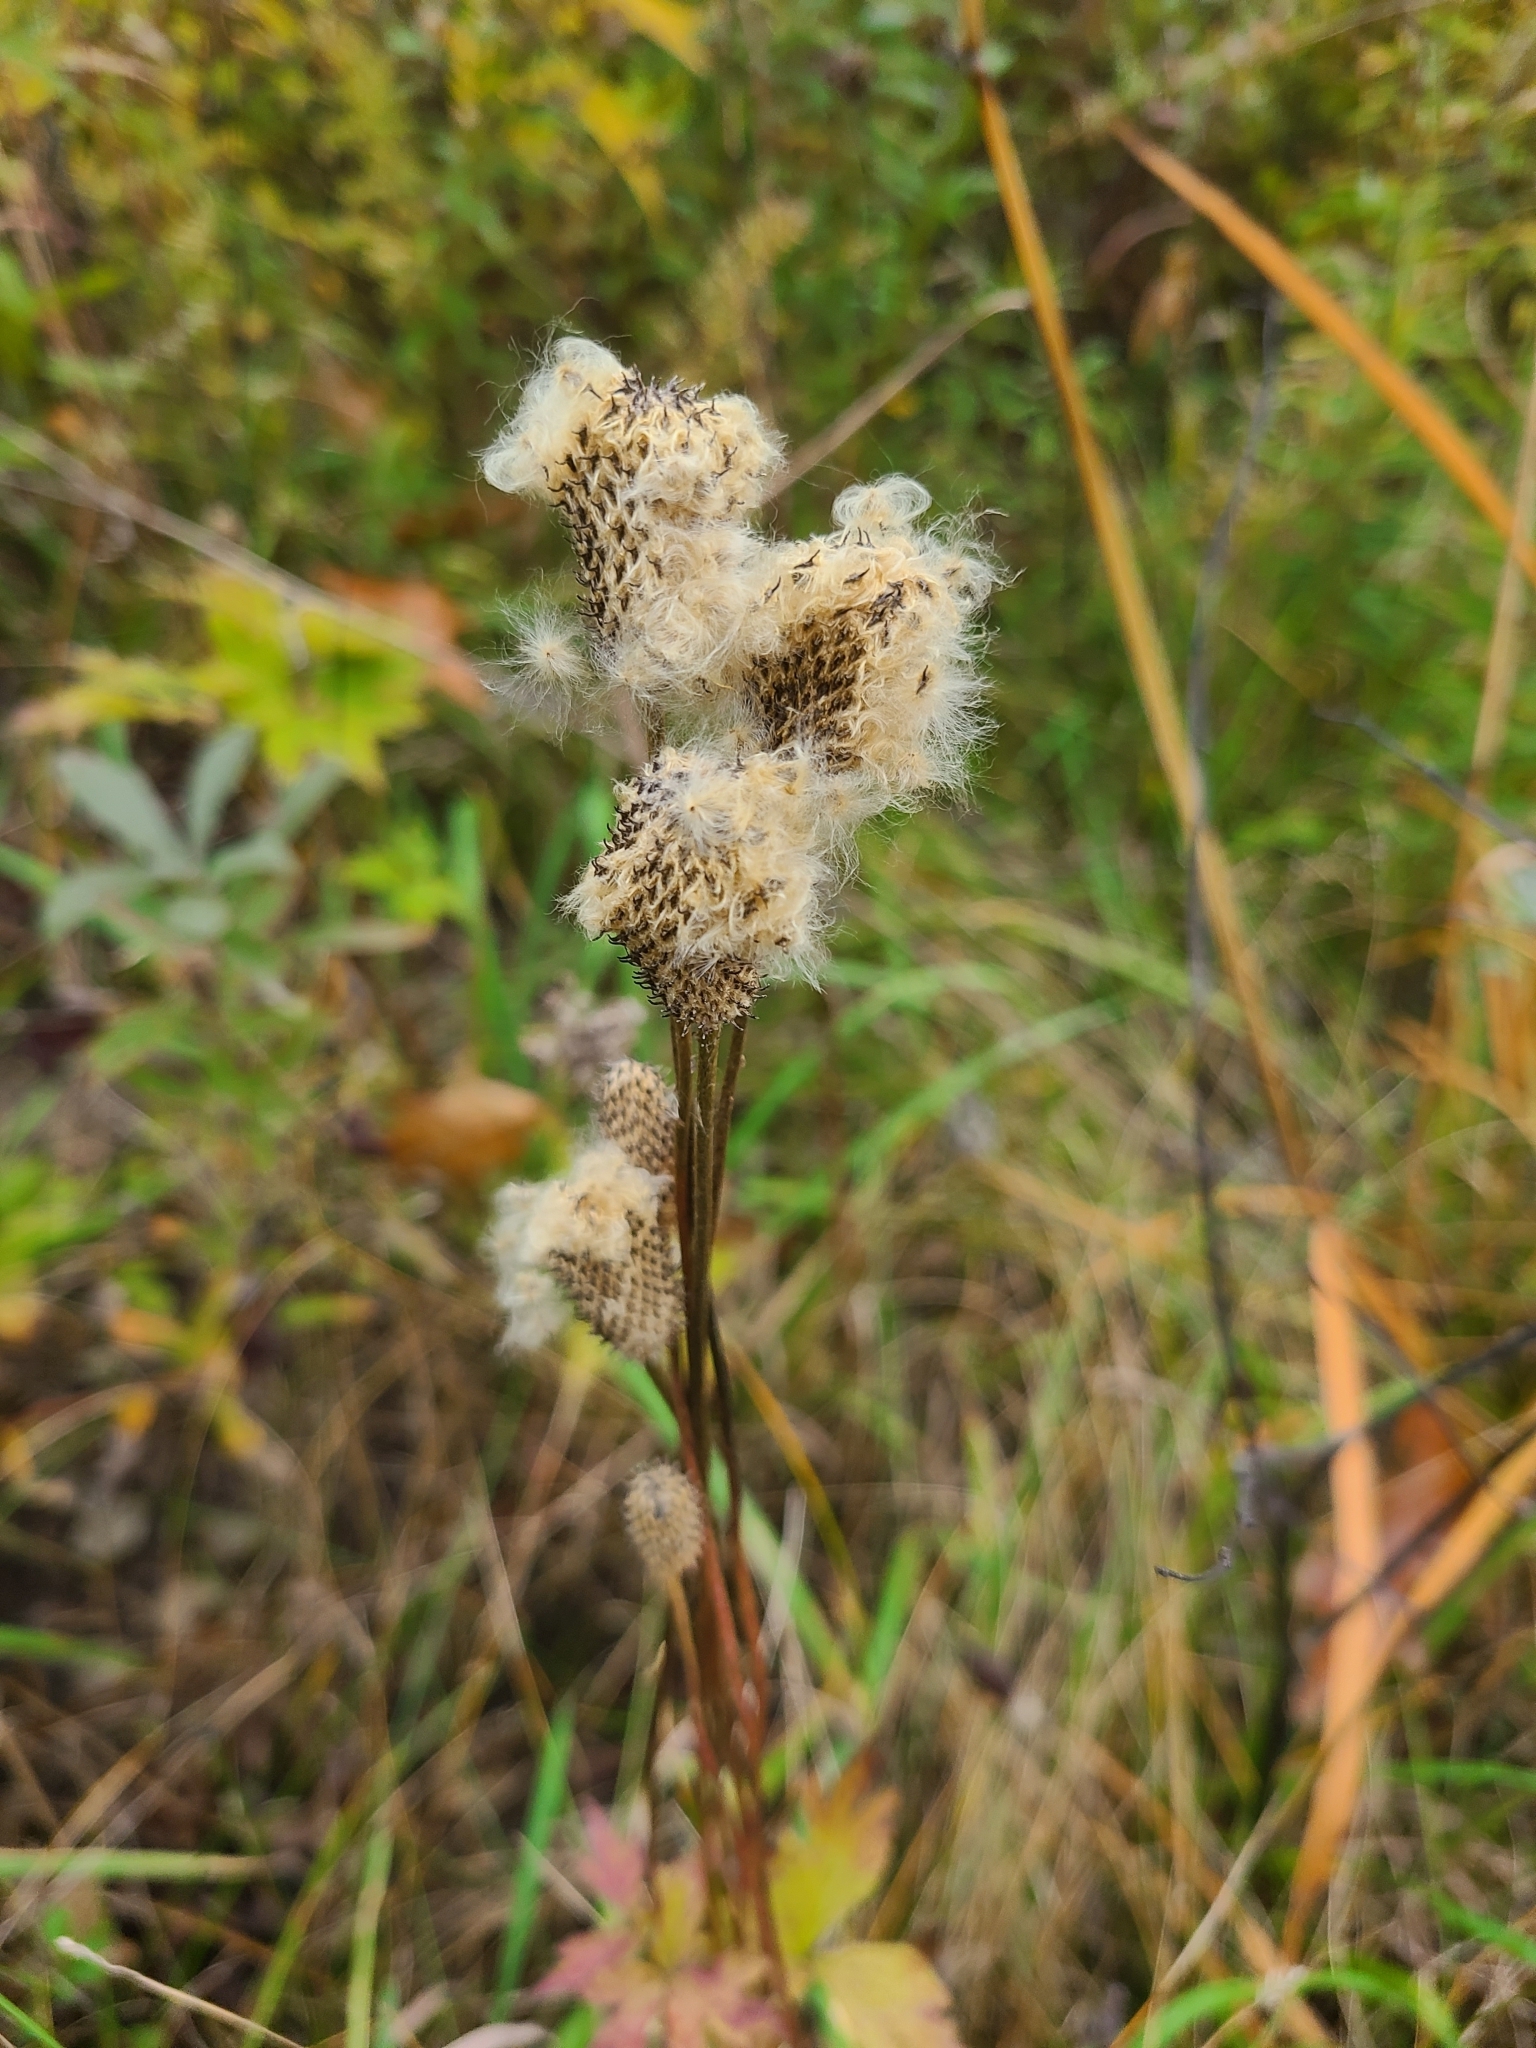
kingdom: Plantae
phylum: Tracheophyta
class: Magnoliopsida
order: Ranunculales
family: Ranunculaceae
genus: Anemone
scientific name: Anemone virginiana
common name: Tall anemone
